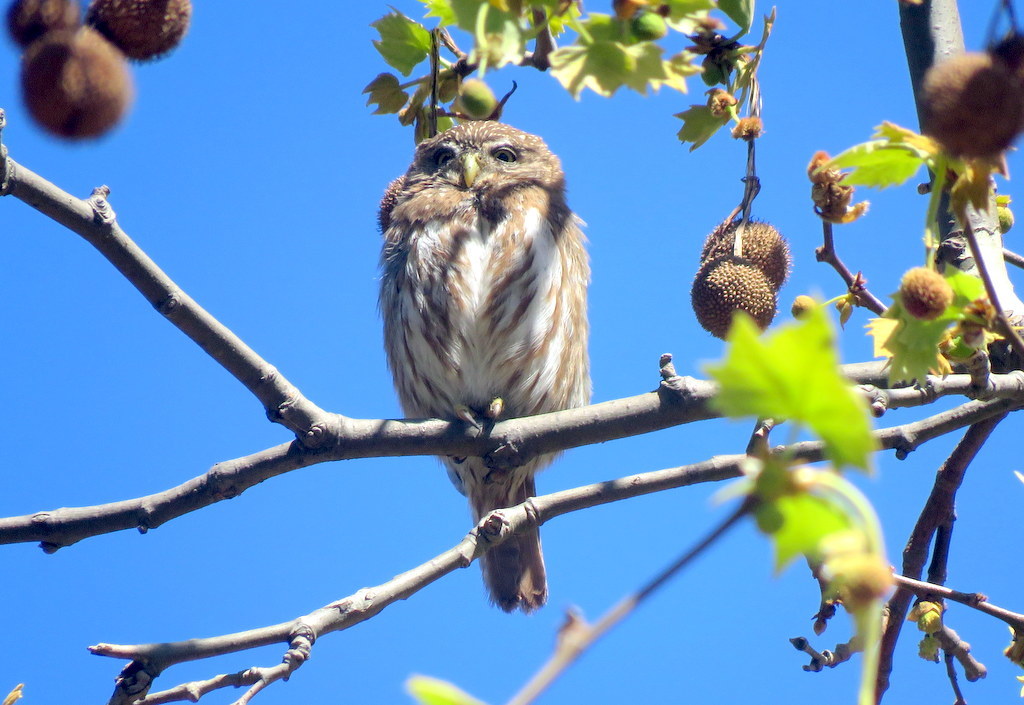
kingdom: Animalia
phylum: Chordata
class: Aves
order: Strigiformes
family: Strigidae
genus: Glaucidium
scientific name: Glaucidium brasilianum
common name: Ferruginous pygmy-owl
